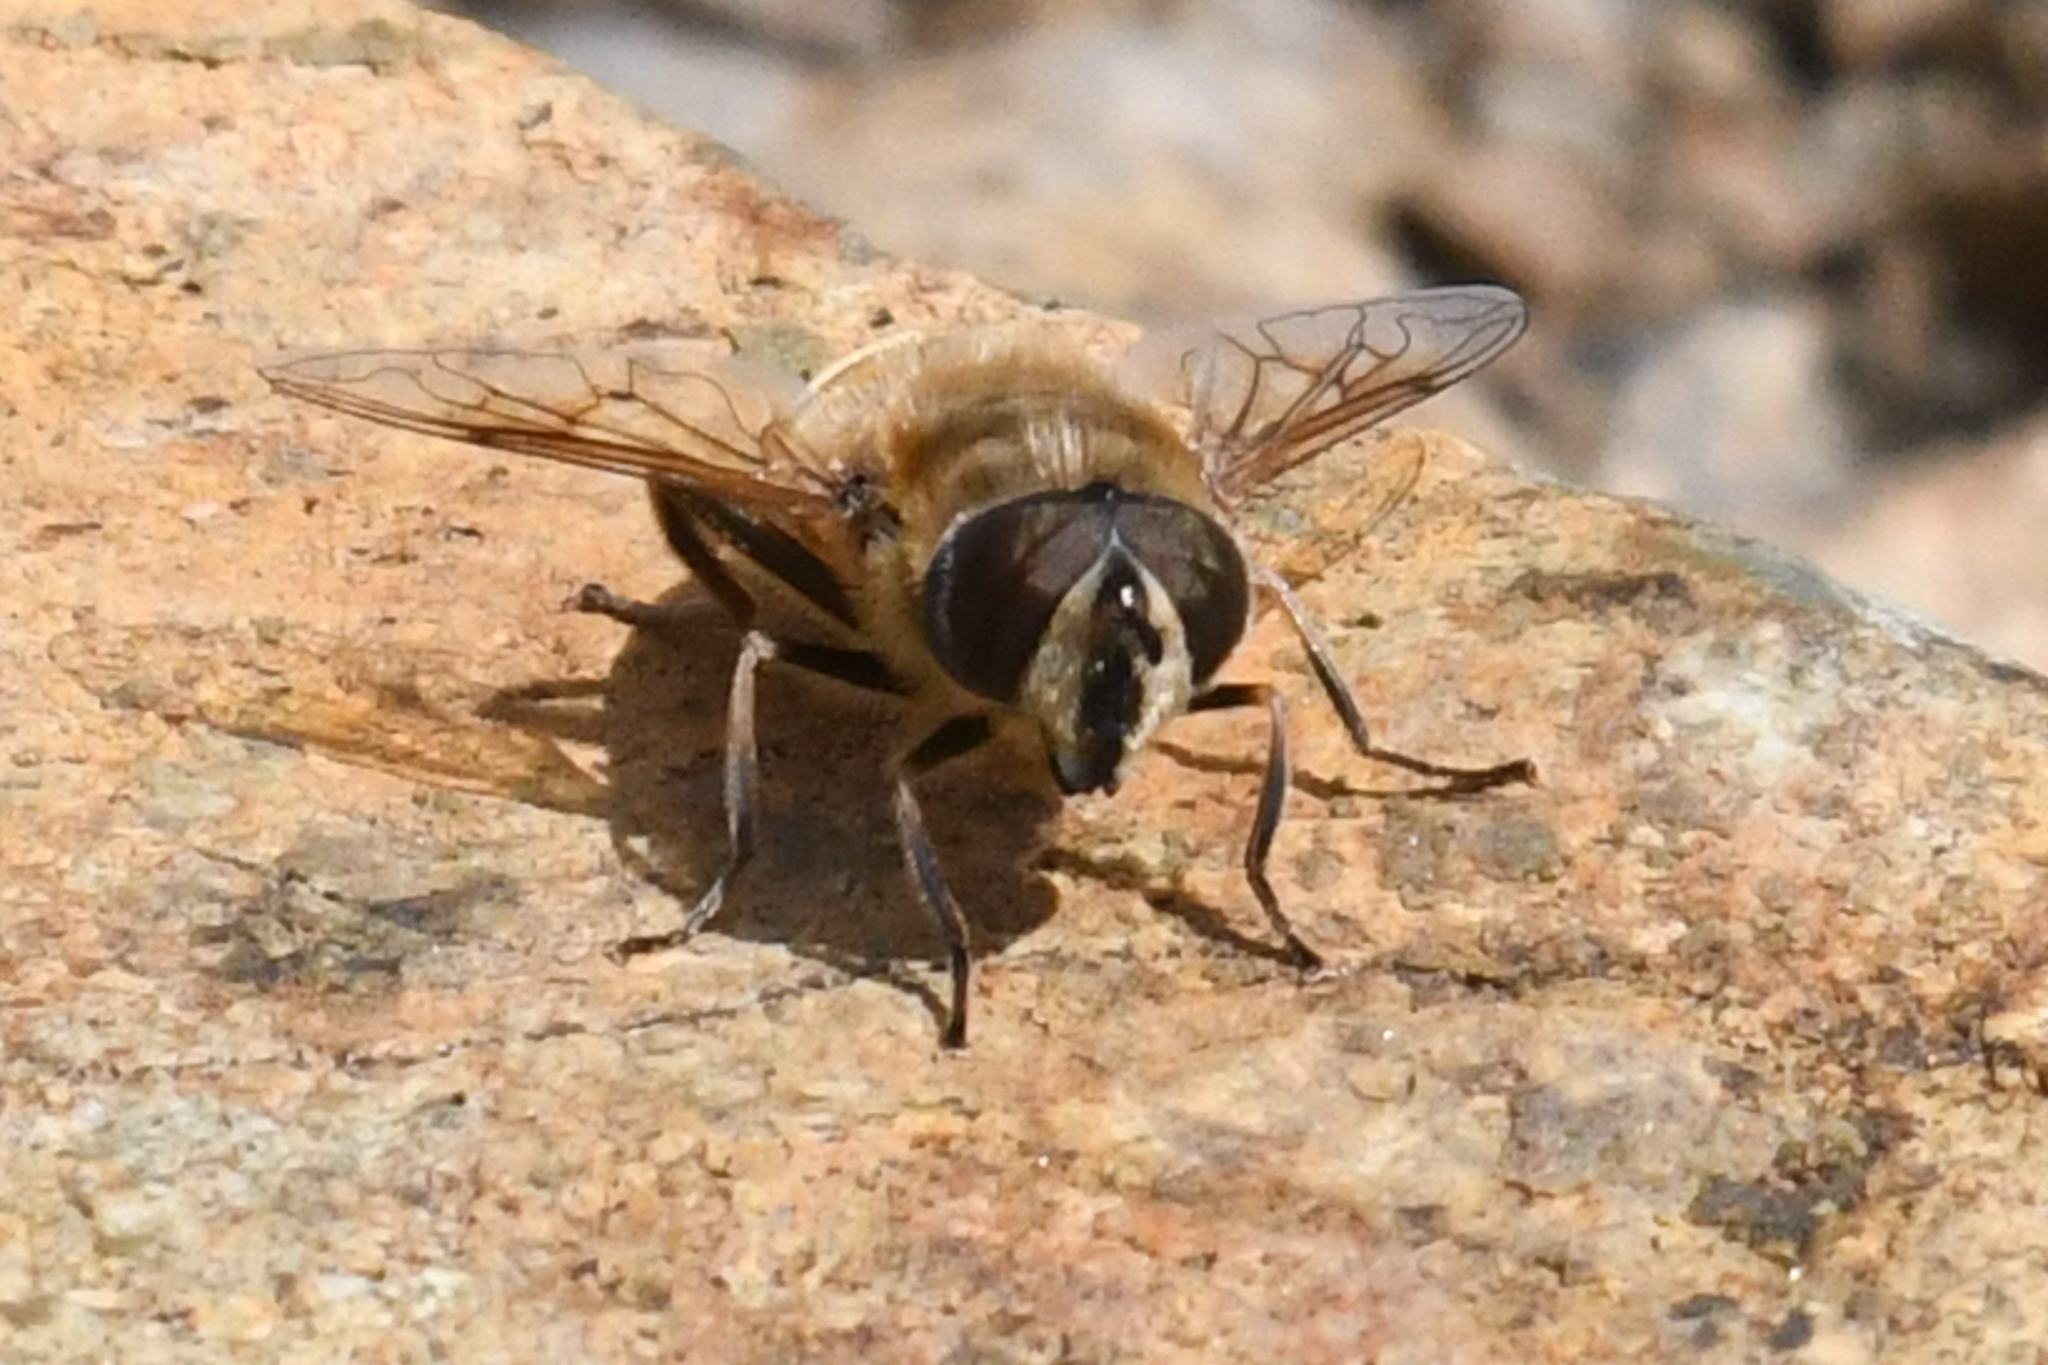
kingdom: Animalia
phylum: Arthropoda
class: Insecta
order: Diptera
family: Syrphidae
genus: Eristalis
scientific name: Eristalis tenax
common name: Drone fly
